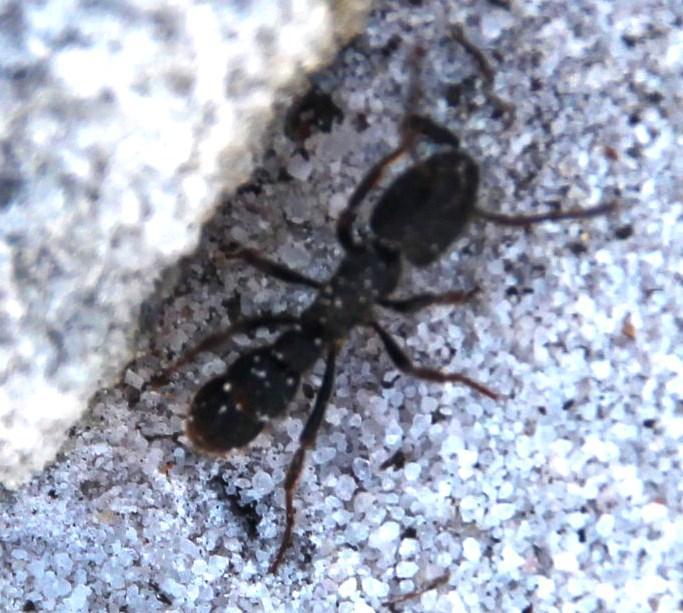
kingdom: Animalia
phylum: Arthropoda
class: Insecta
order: Hymenoptera
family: Formicidae
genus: Bothroponera
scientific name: Bothroponera cavernosa
